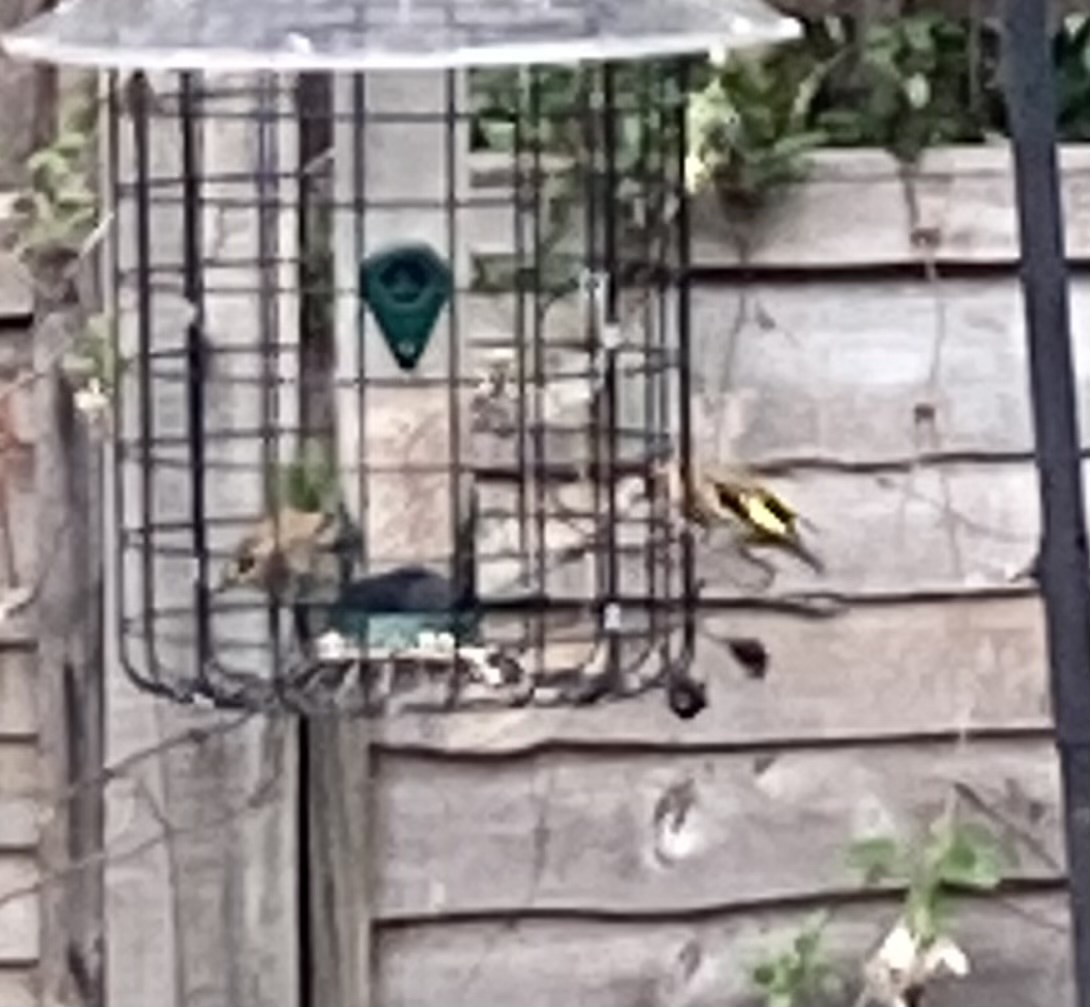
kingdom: Animalia
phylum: Chordata
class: Aves
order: Passeriformes
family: Fringillidae
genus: Carduelis
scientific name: Carduelis carduelis
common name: European goldfinch
